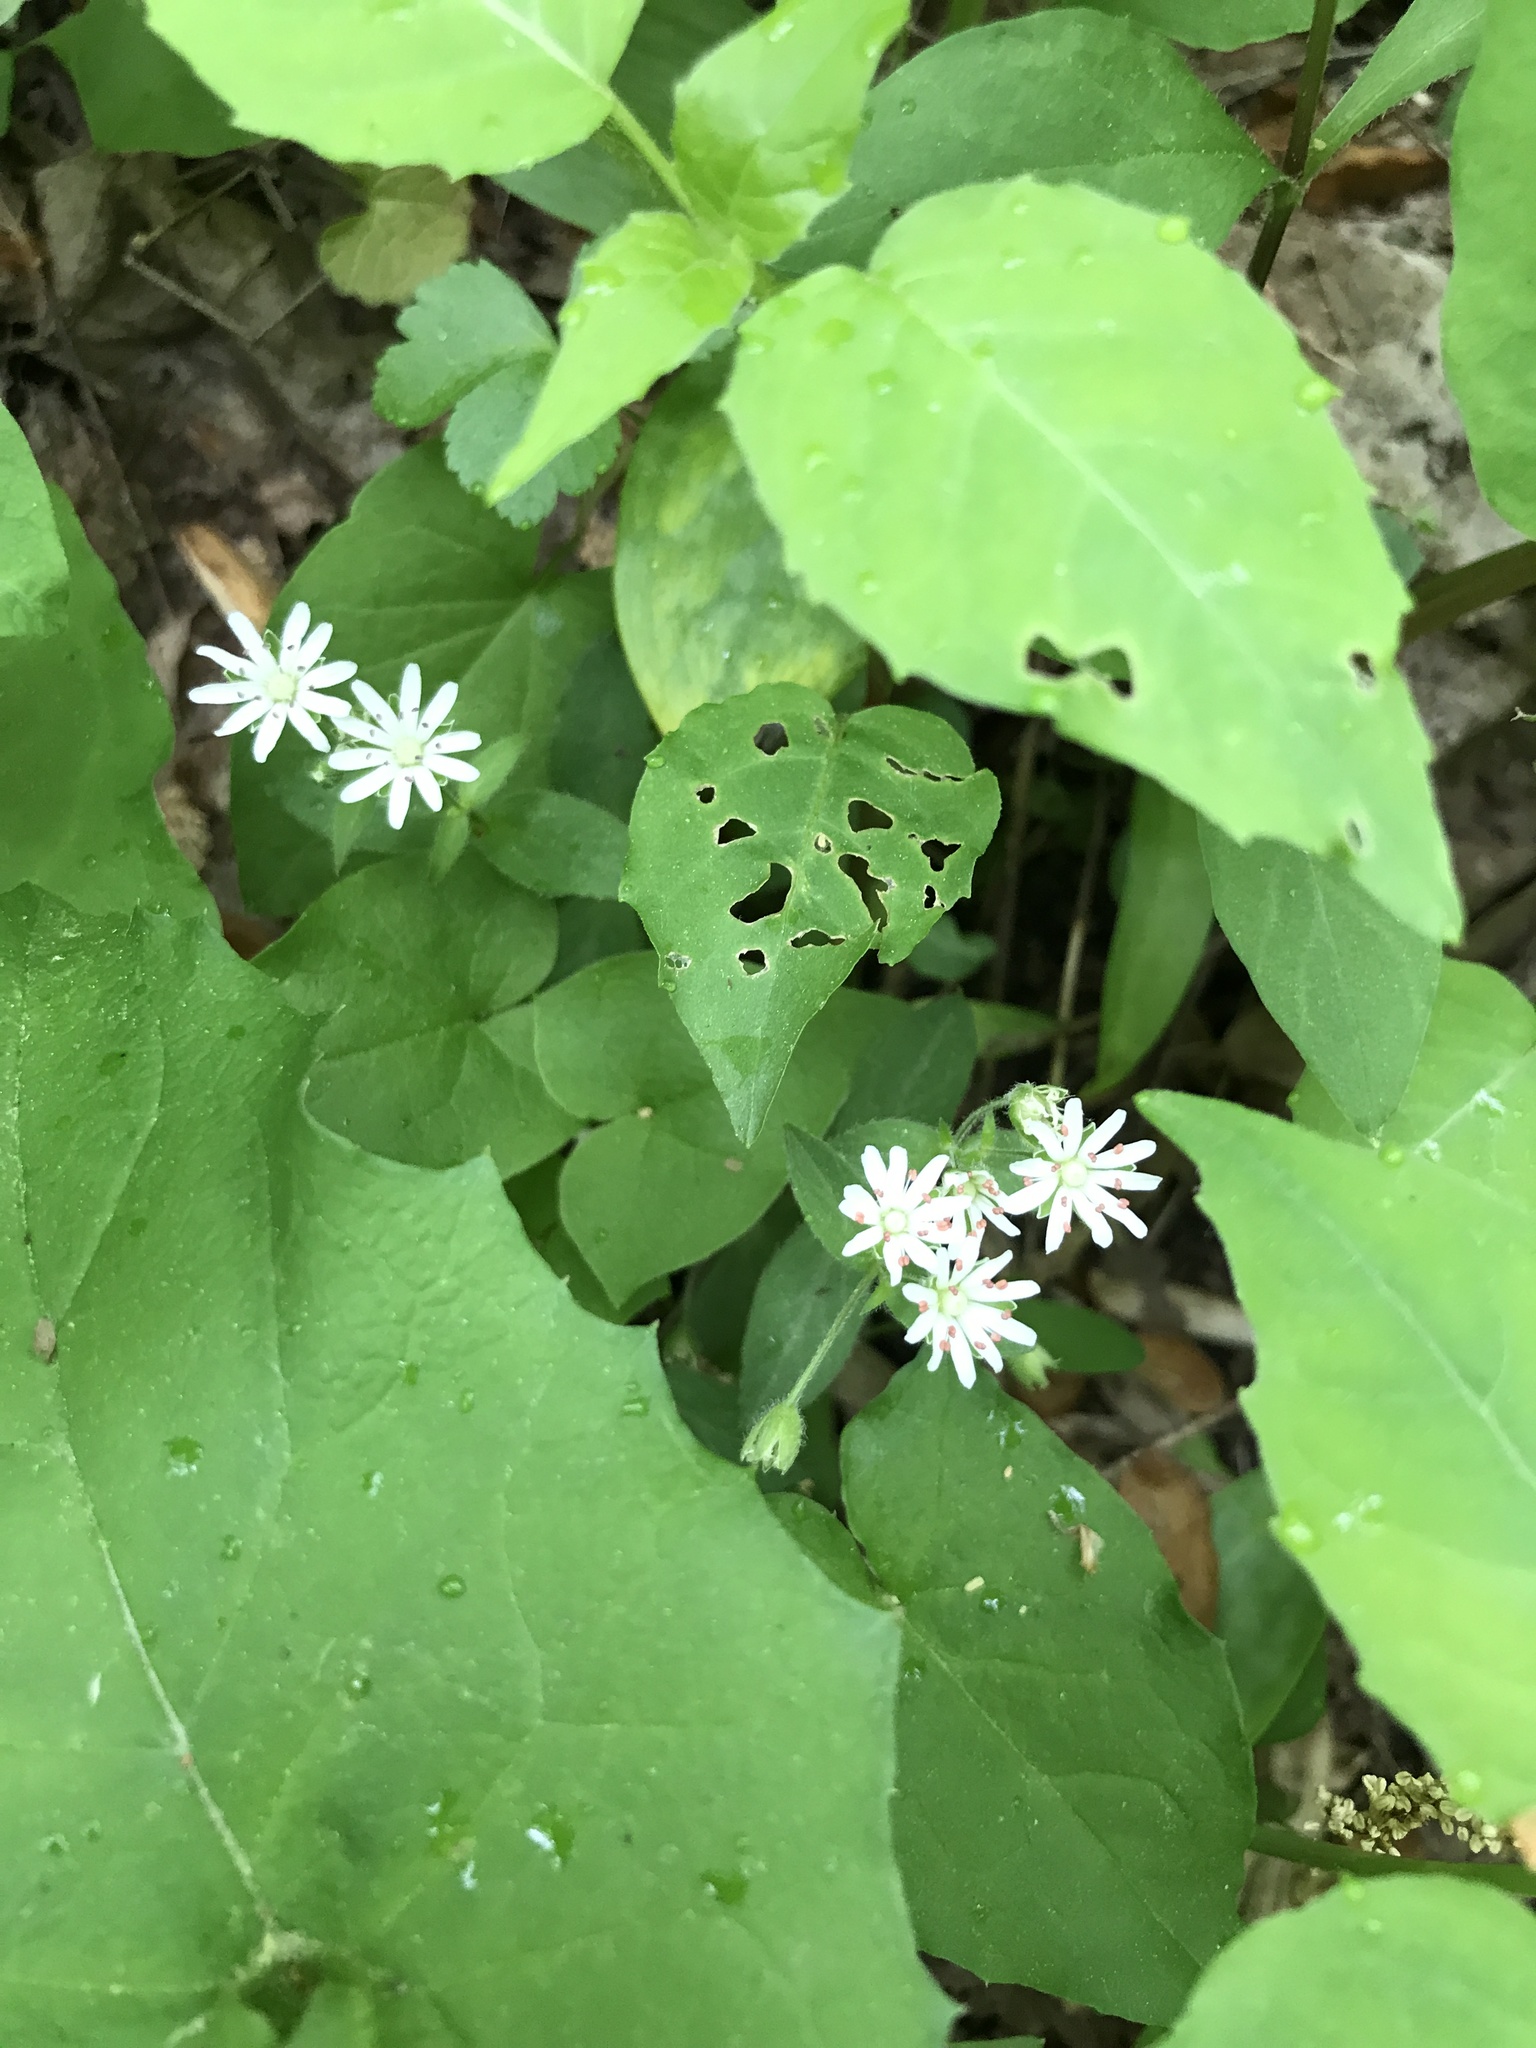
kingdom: Plantae
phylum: Tracheophyta
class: Magnoliopsida
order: Caryophyllales
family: Caryophyllaceae
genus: Stellaria
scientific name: Stellaria pubera
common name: Star chickweed
